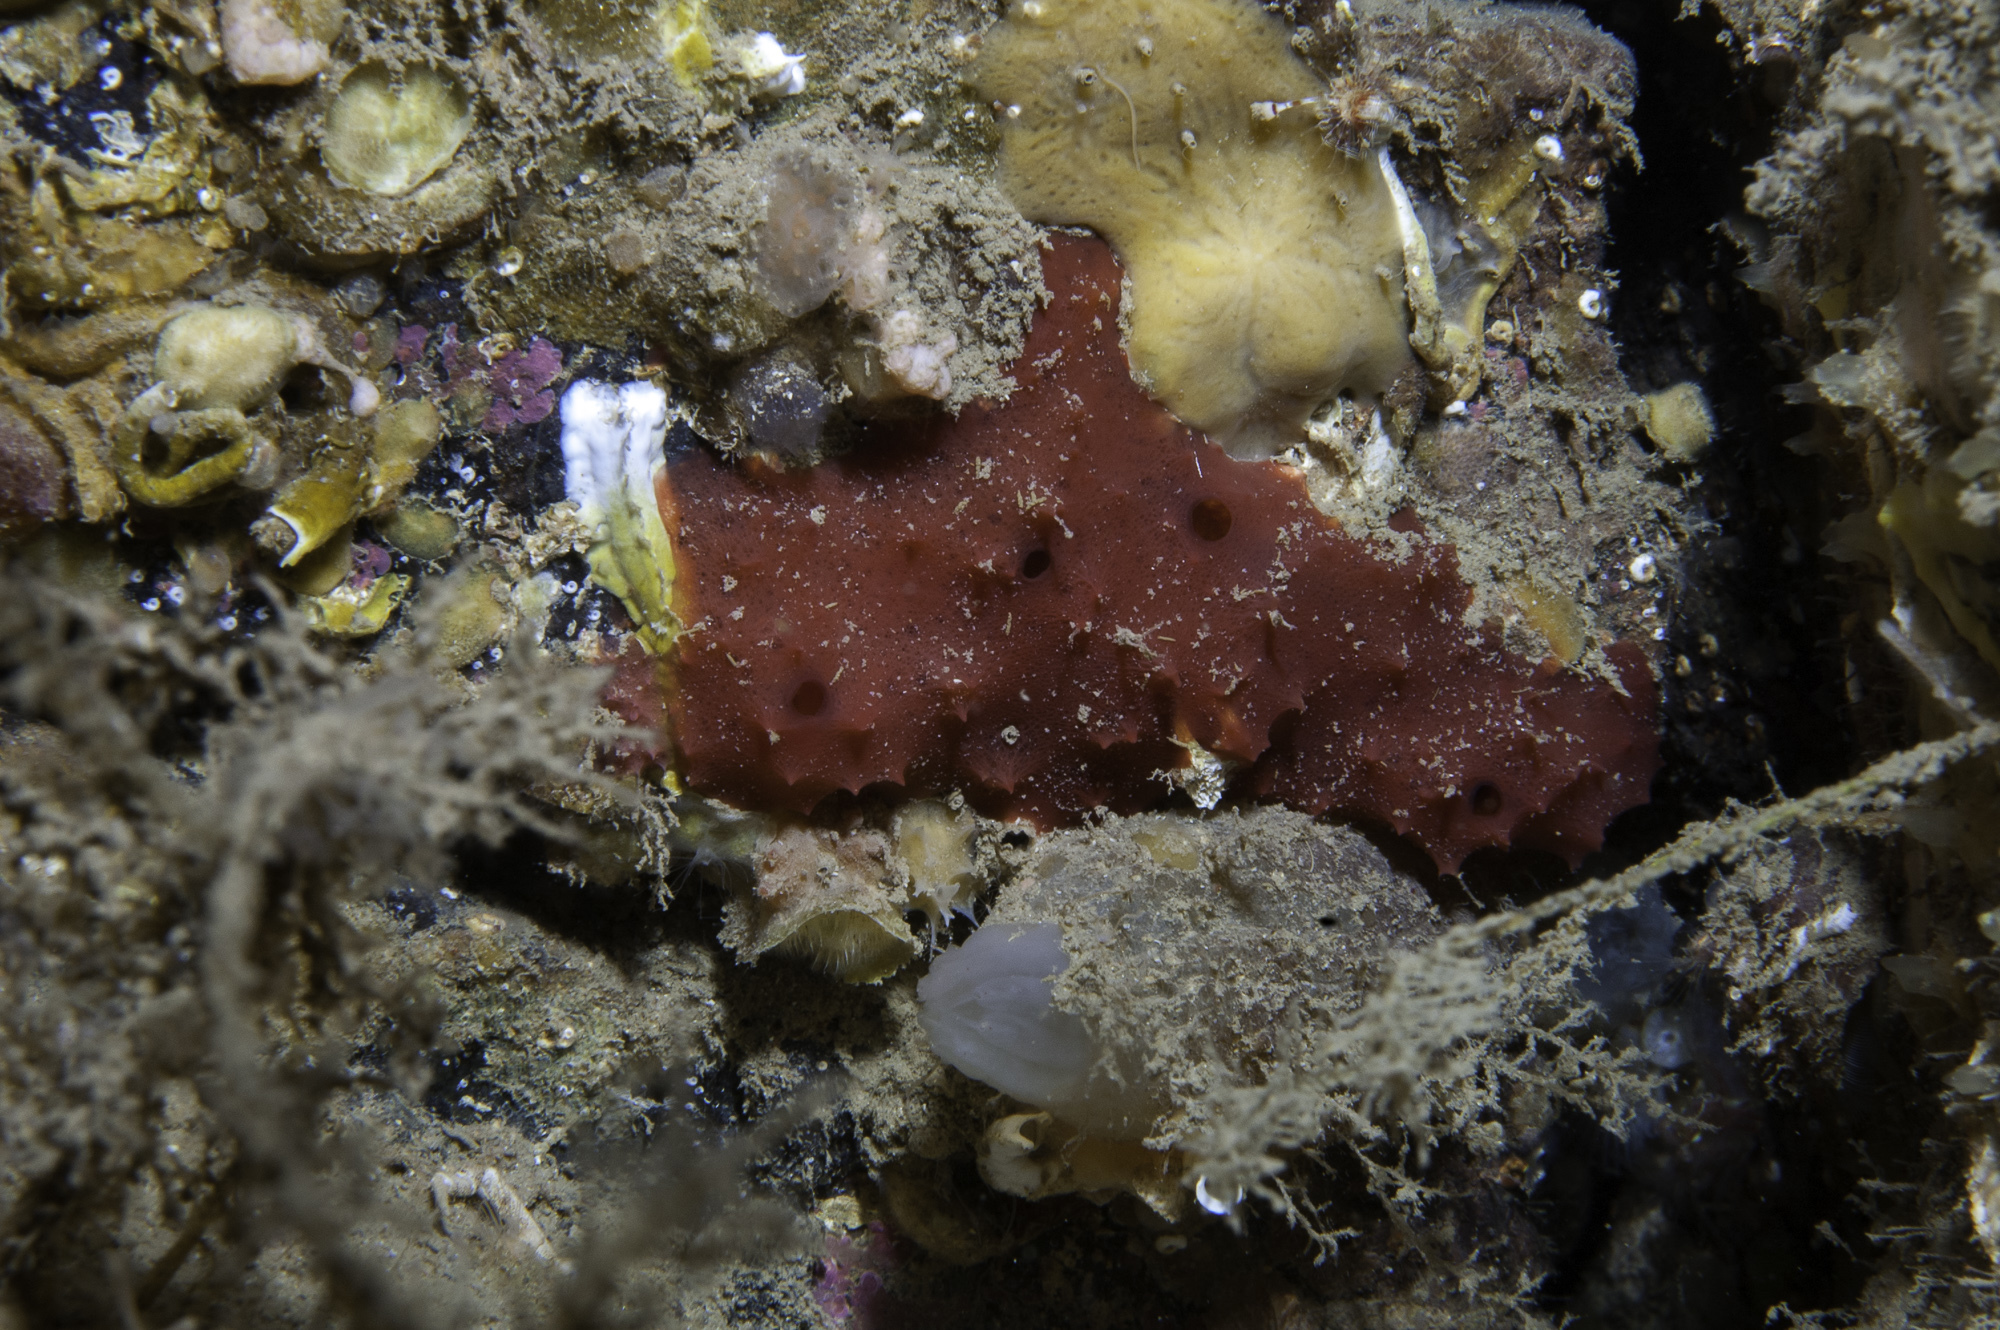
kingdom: Animalia
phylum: Porifera
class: Demospongiae
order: Dendroceratida
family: Darwinellidae
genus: Aplysilla
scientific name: Aplysilla rosea
